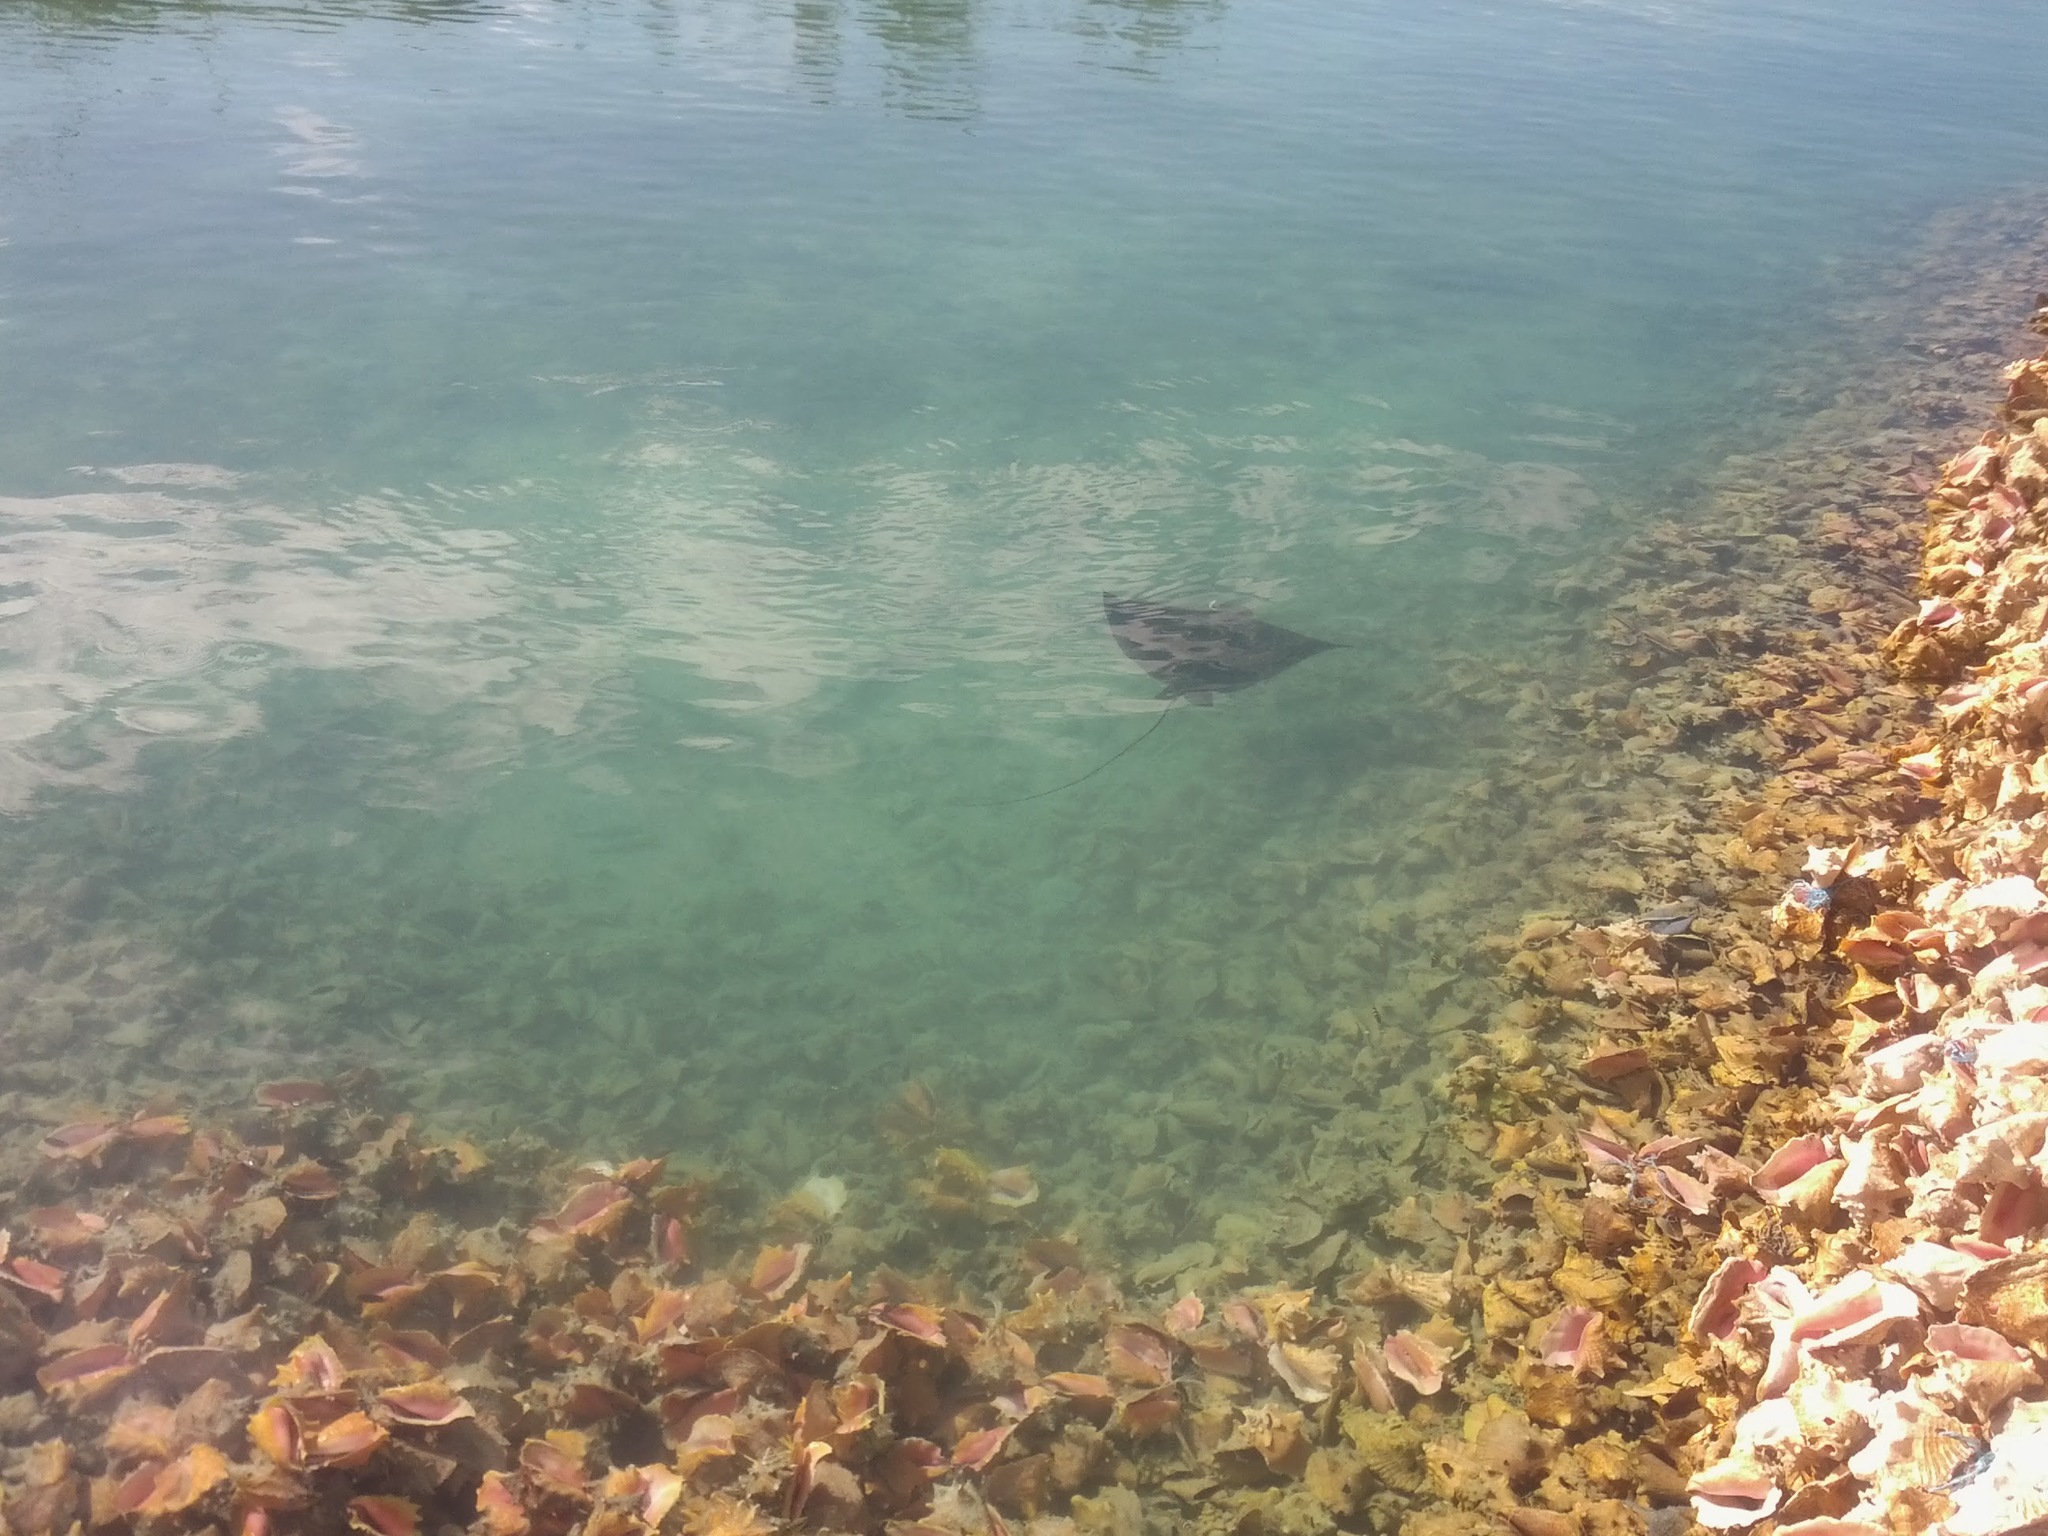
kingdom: Animalia
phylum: Chordata
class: Elasmobranchii
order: Myliobatiformes
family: Myliobatidae
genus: Aetobatus
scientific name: Aetobatus narinari
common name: Spotted eagle ray
